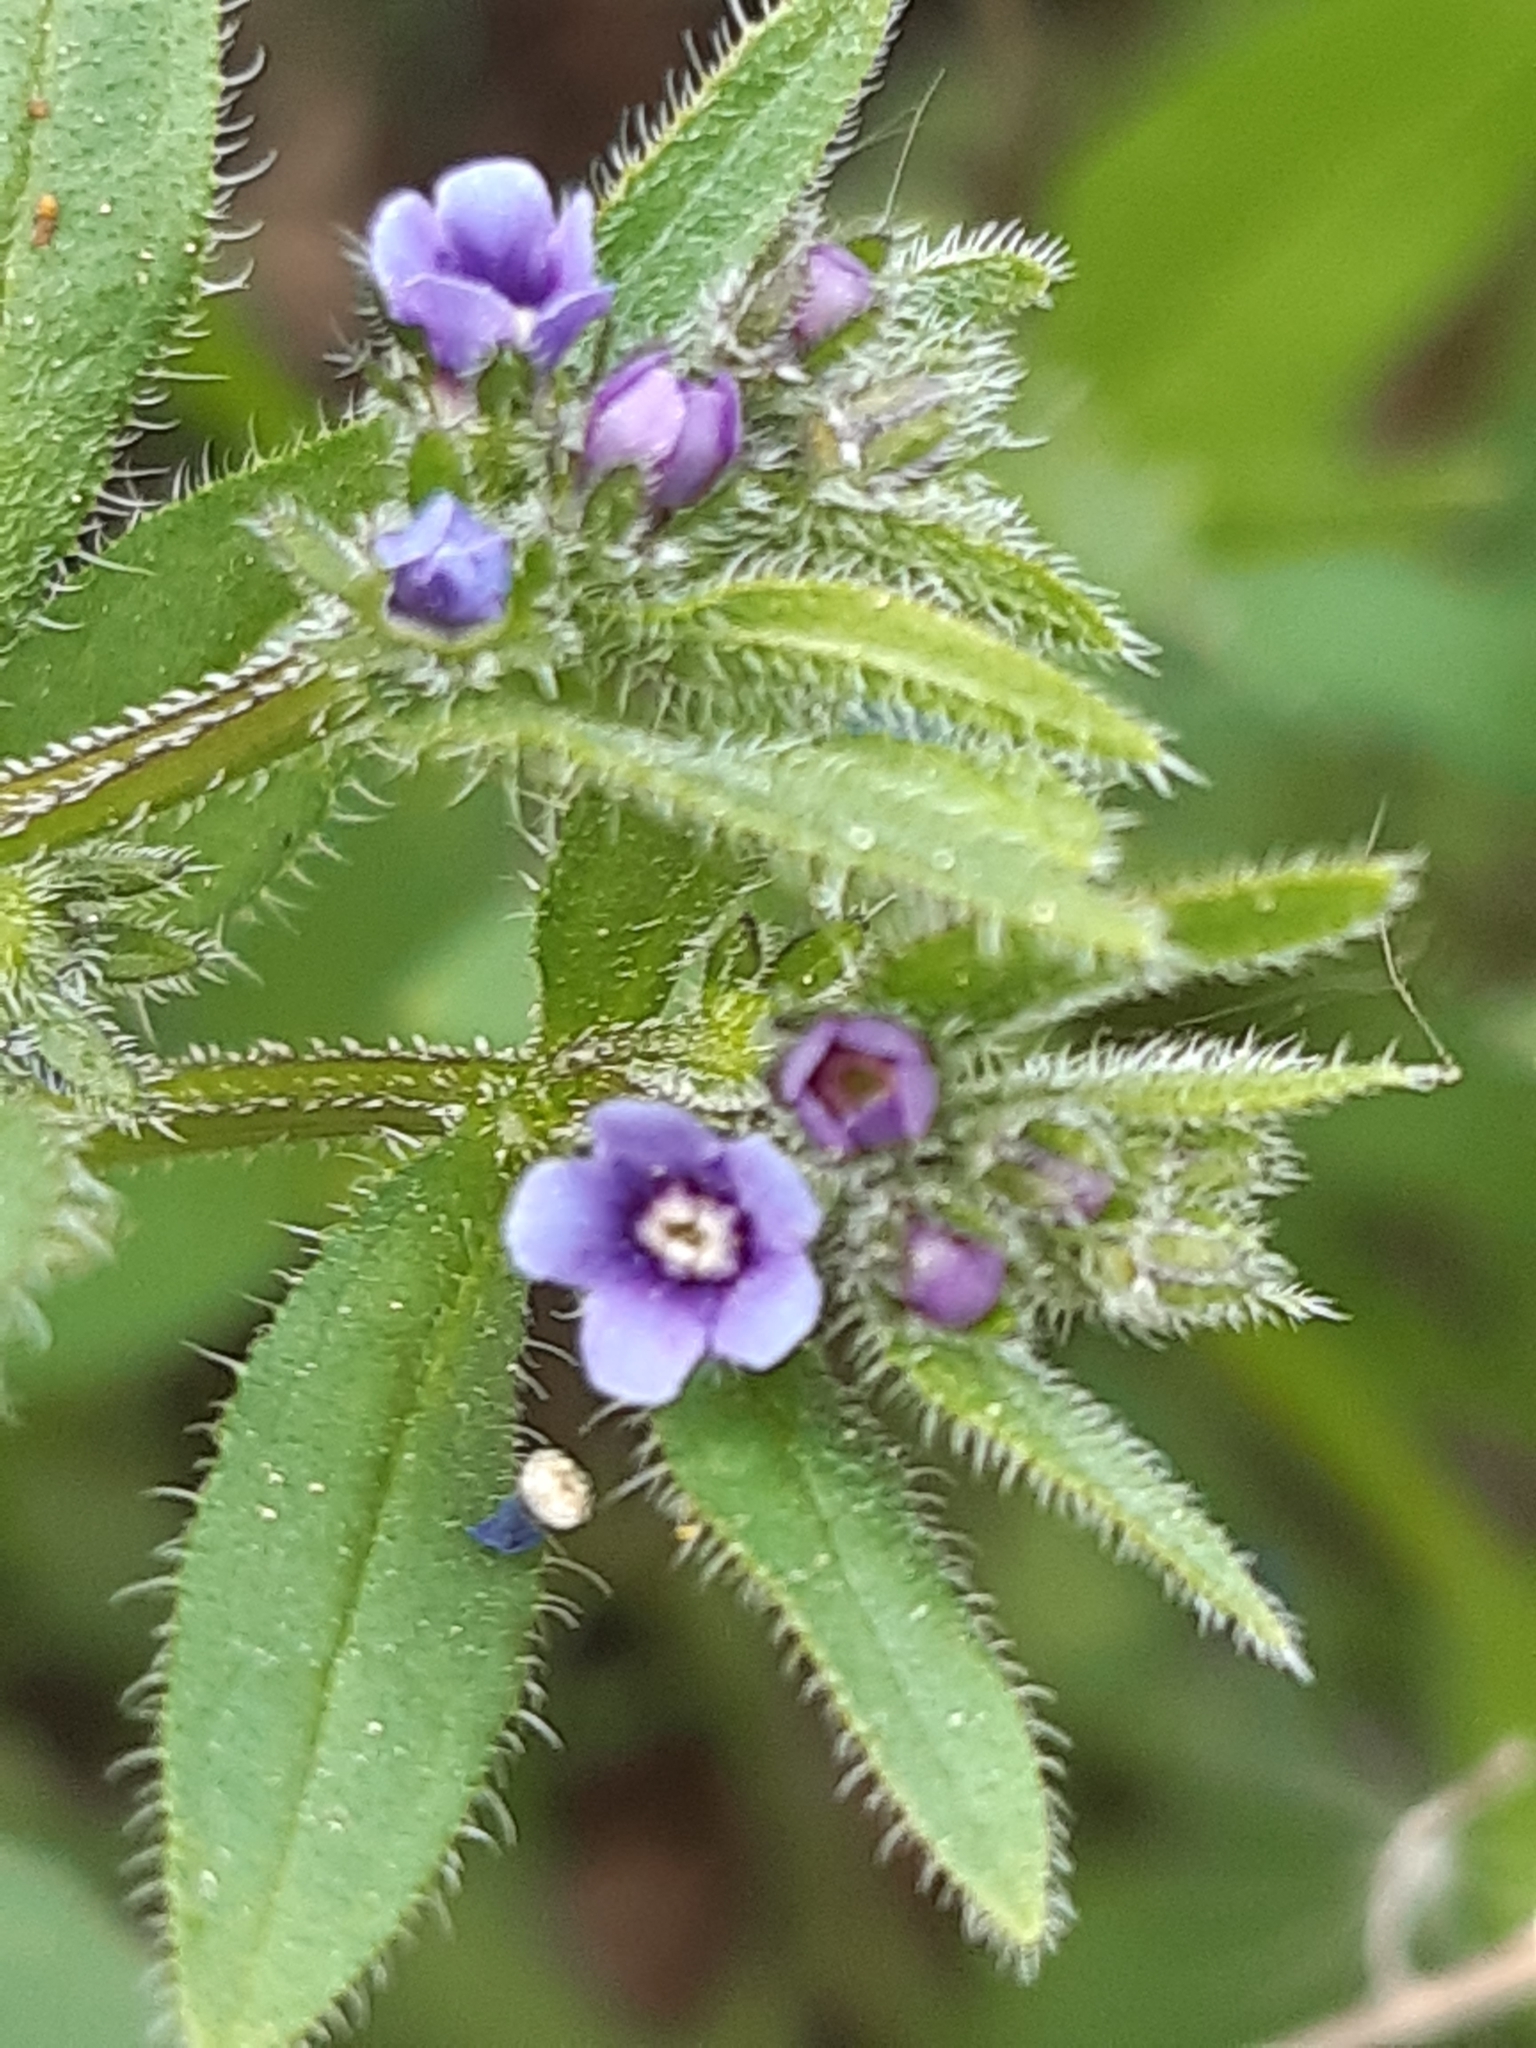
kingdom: Plantae
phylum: Tracheophyta
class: Magnoliopsida
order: Boraginales
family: Boraginaceae
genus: Asperugo
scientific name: Asperugo procumbens
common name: Madwort
